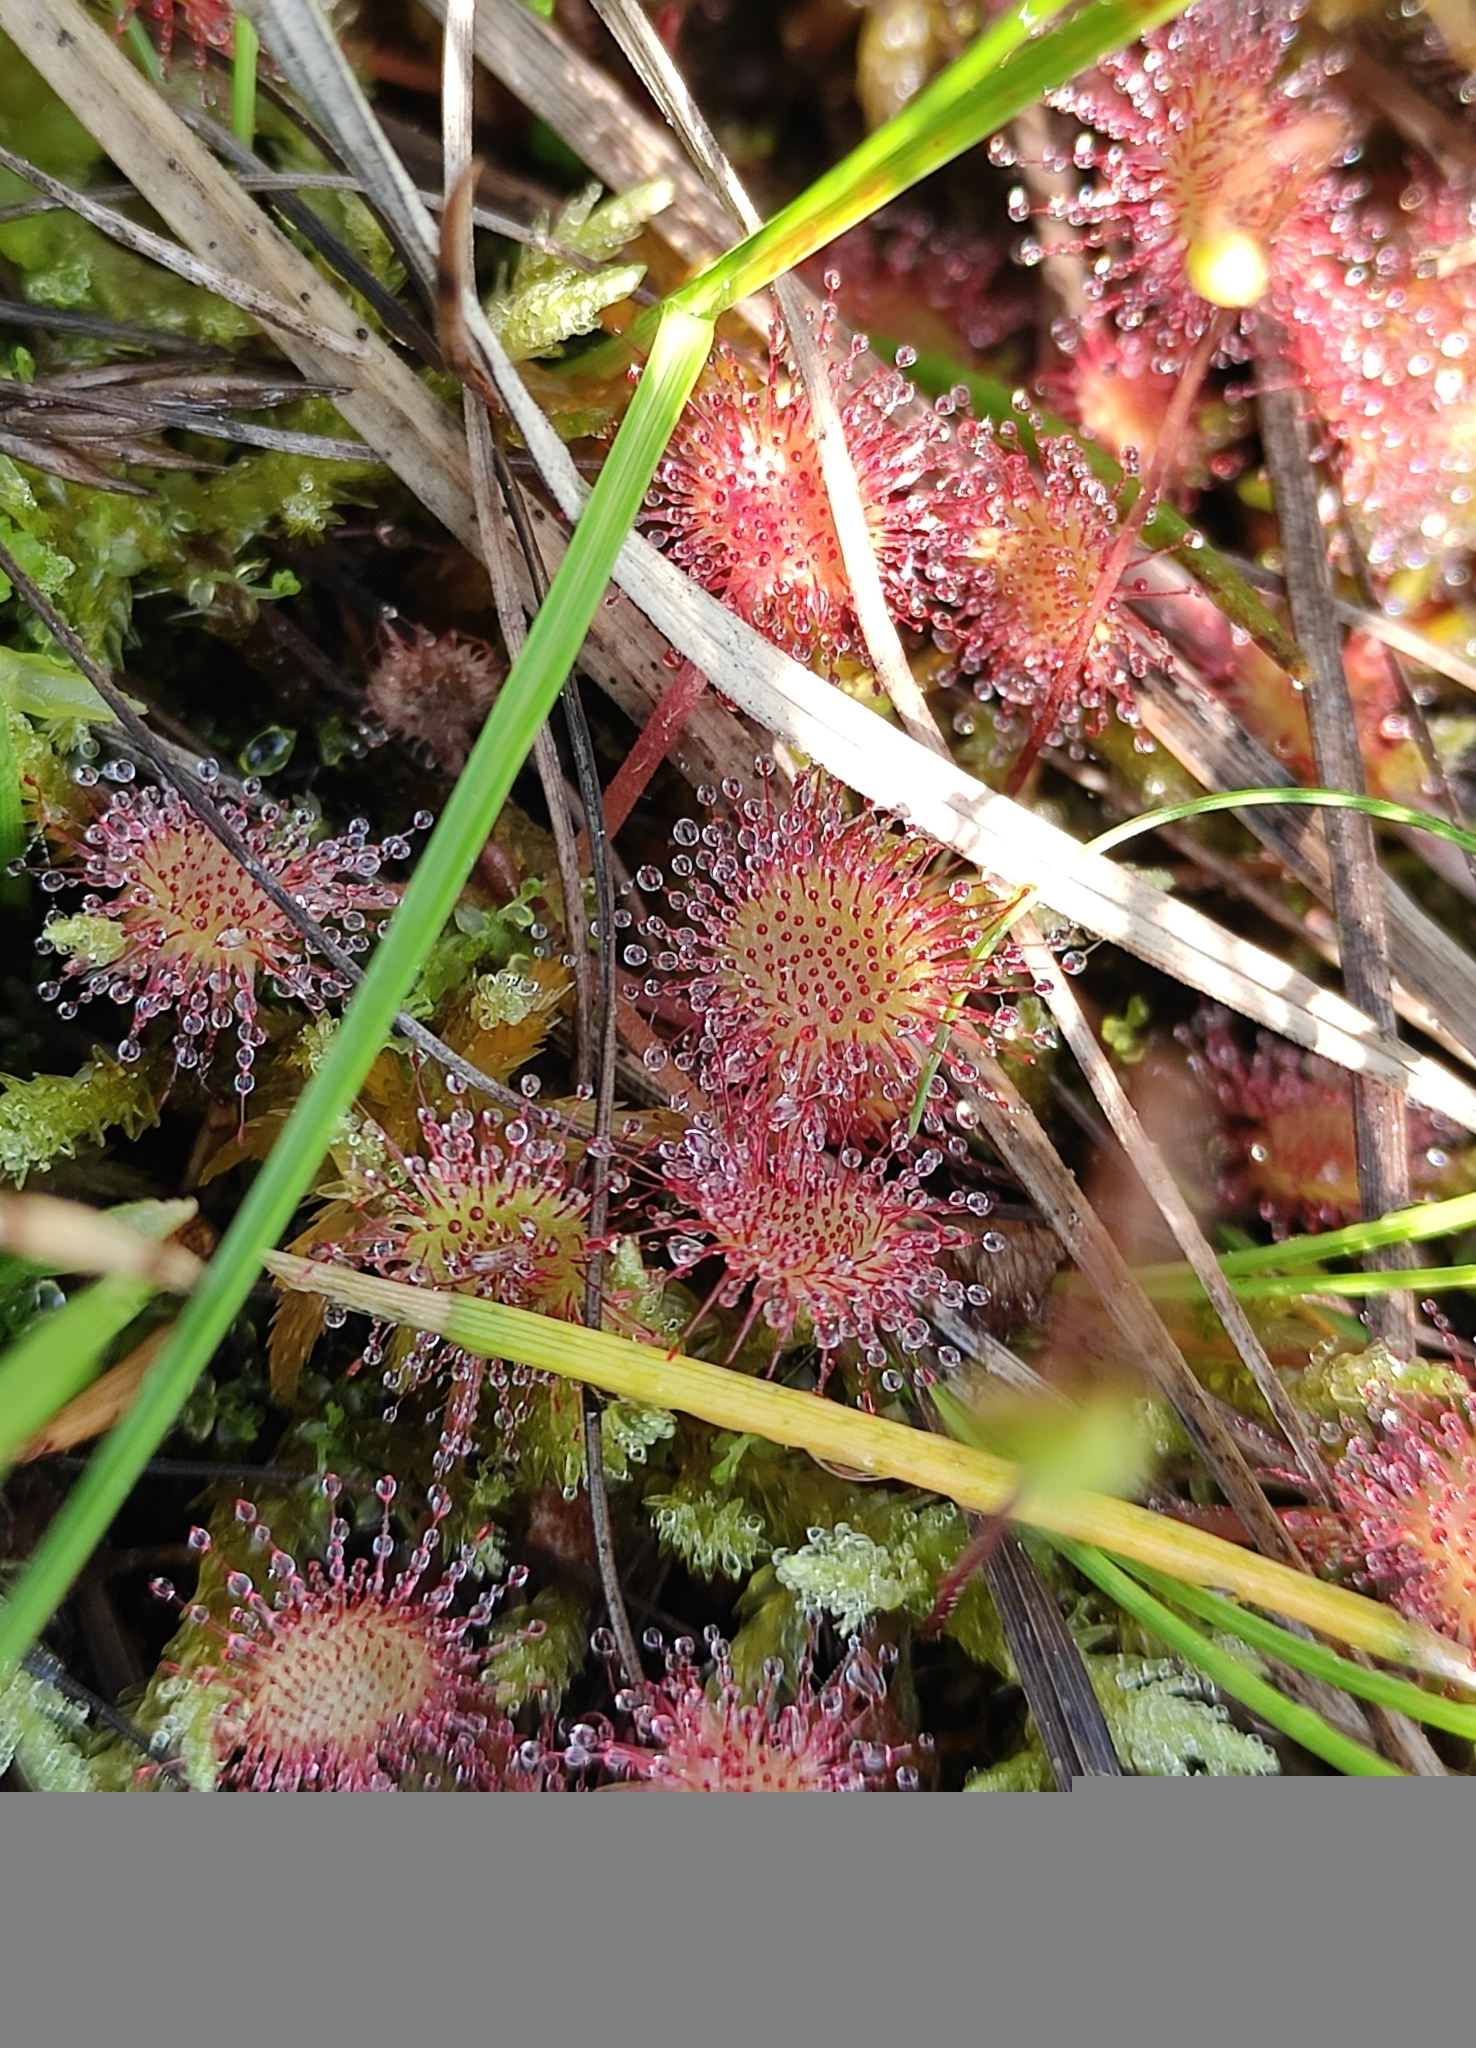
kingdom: Plantae
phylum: Tracheophyta
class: Magnoliopsida
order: Caryophyllales
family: Droseraceae
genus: Drosera
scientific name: Drosera rotundifolia
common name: Round-leaved sundew
